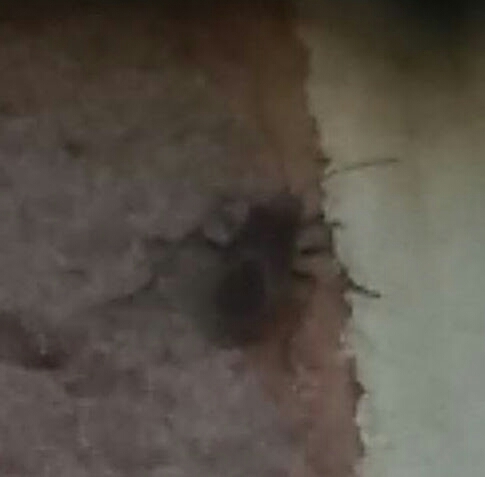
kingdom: Animalia
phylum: Arthropoda
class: Insecta
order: Hemiptera
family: Rhopalidae
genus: Boisea
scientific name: Boisea trivittata
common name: Boxelder bug
